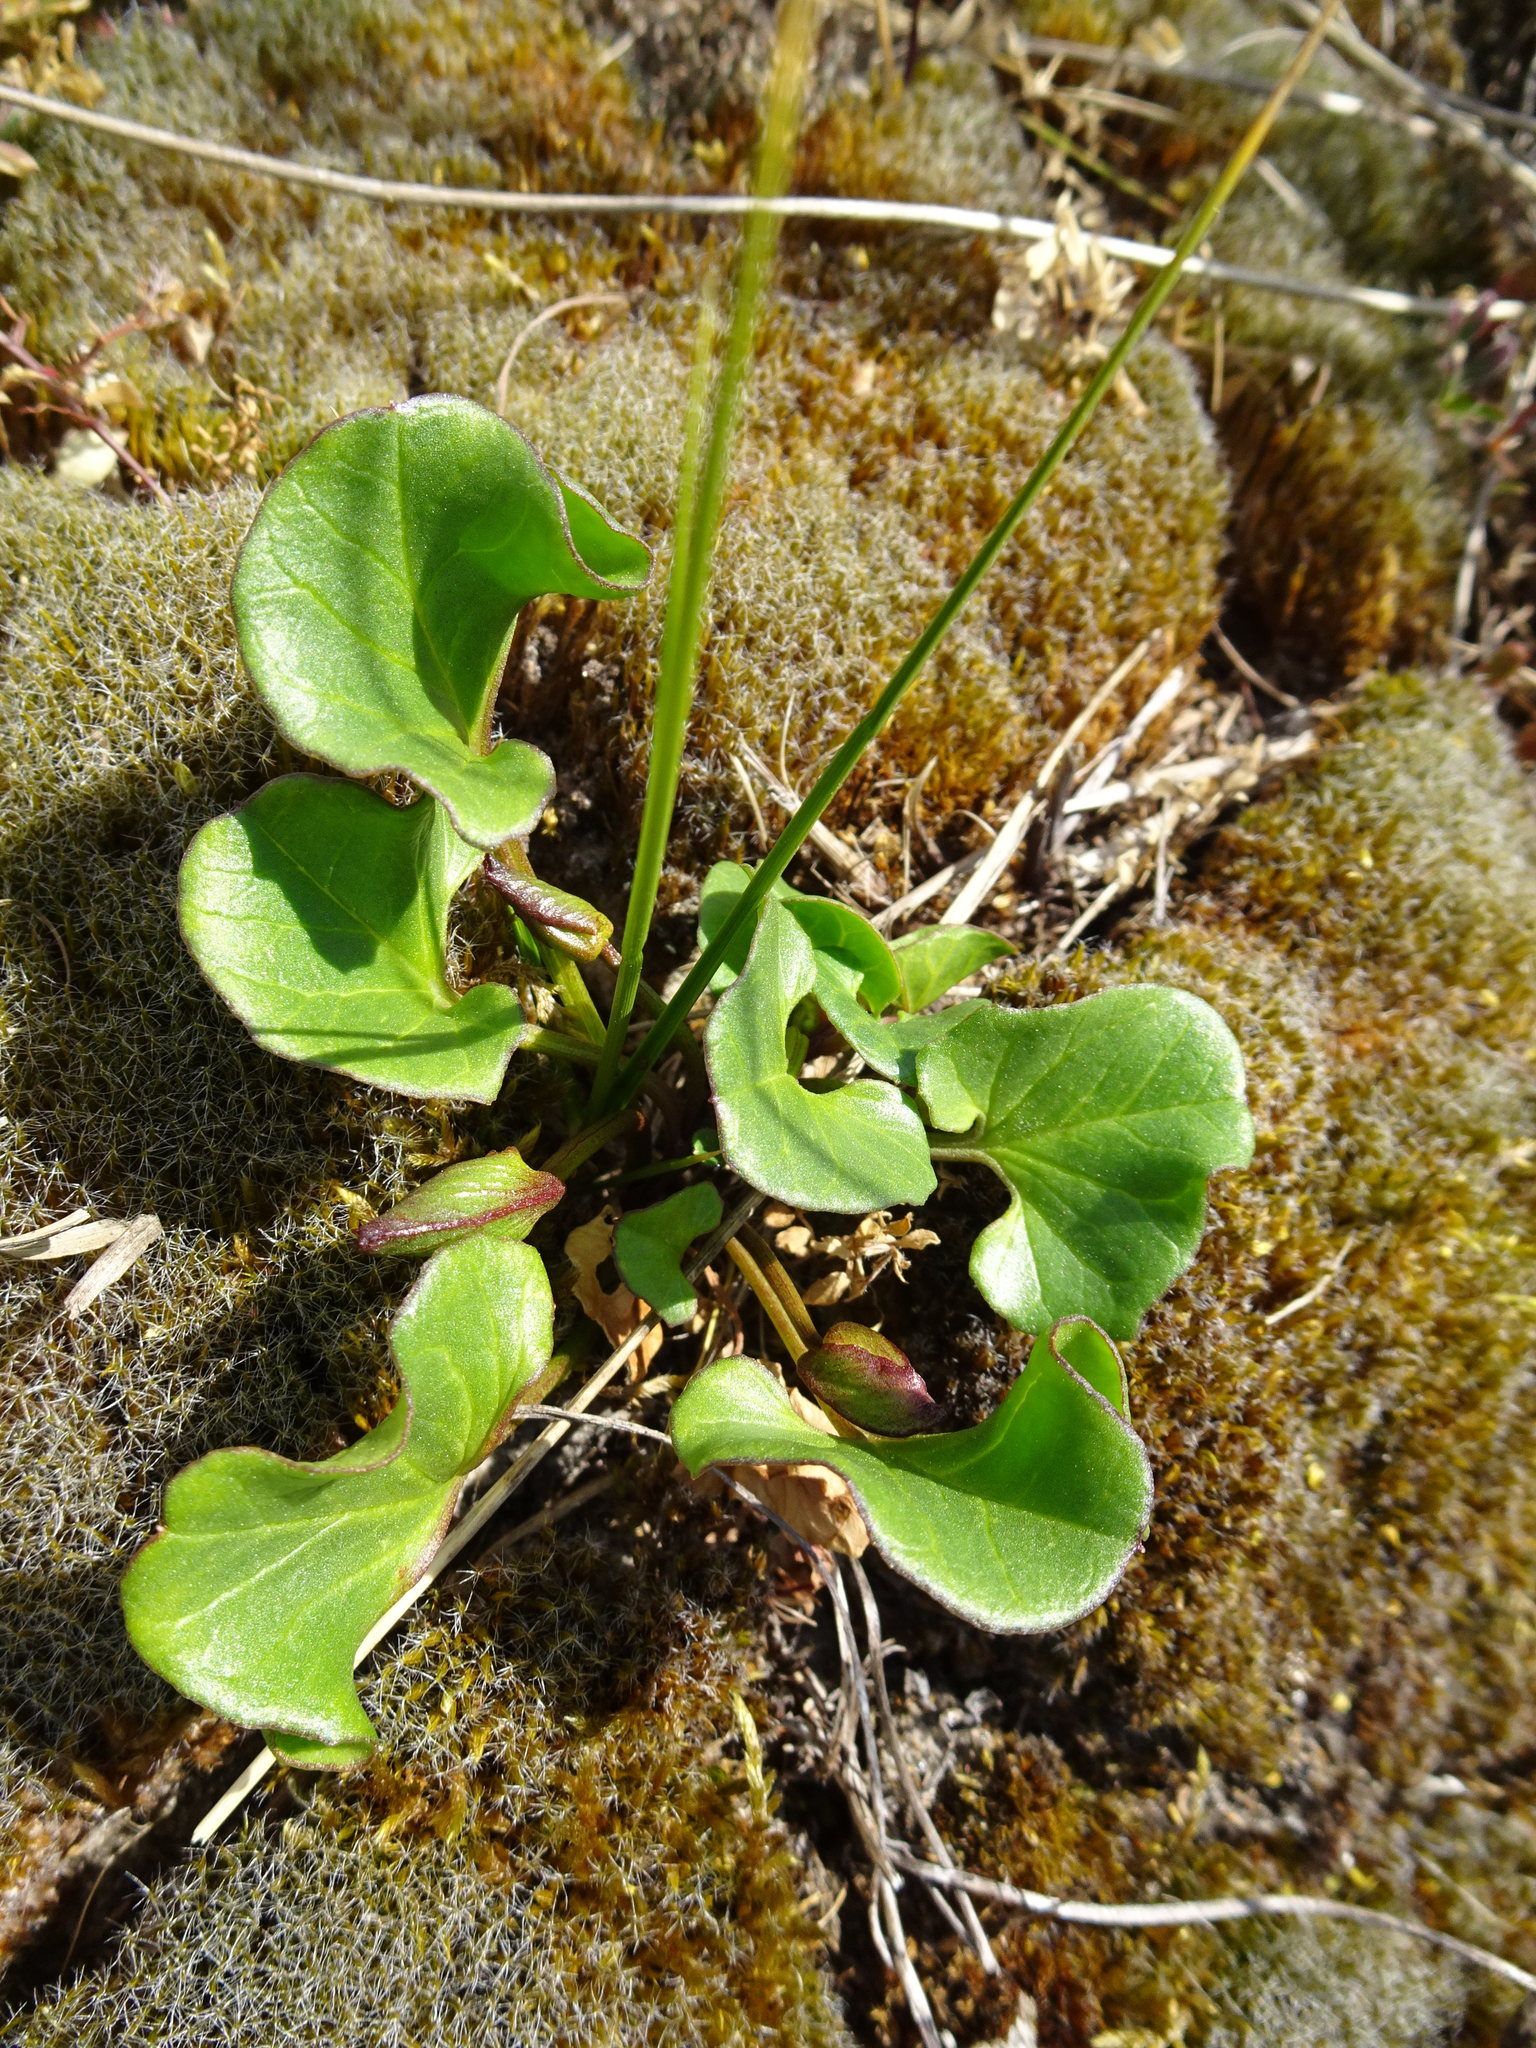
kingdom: Plantae
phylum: Tracheophyta
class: Magnoliopsida
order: Solanales
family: Convolvulaceae
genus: Calystegia
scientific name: Calystegia soldanella
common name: Sea bindweed
